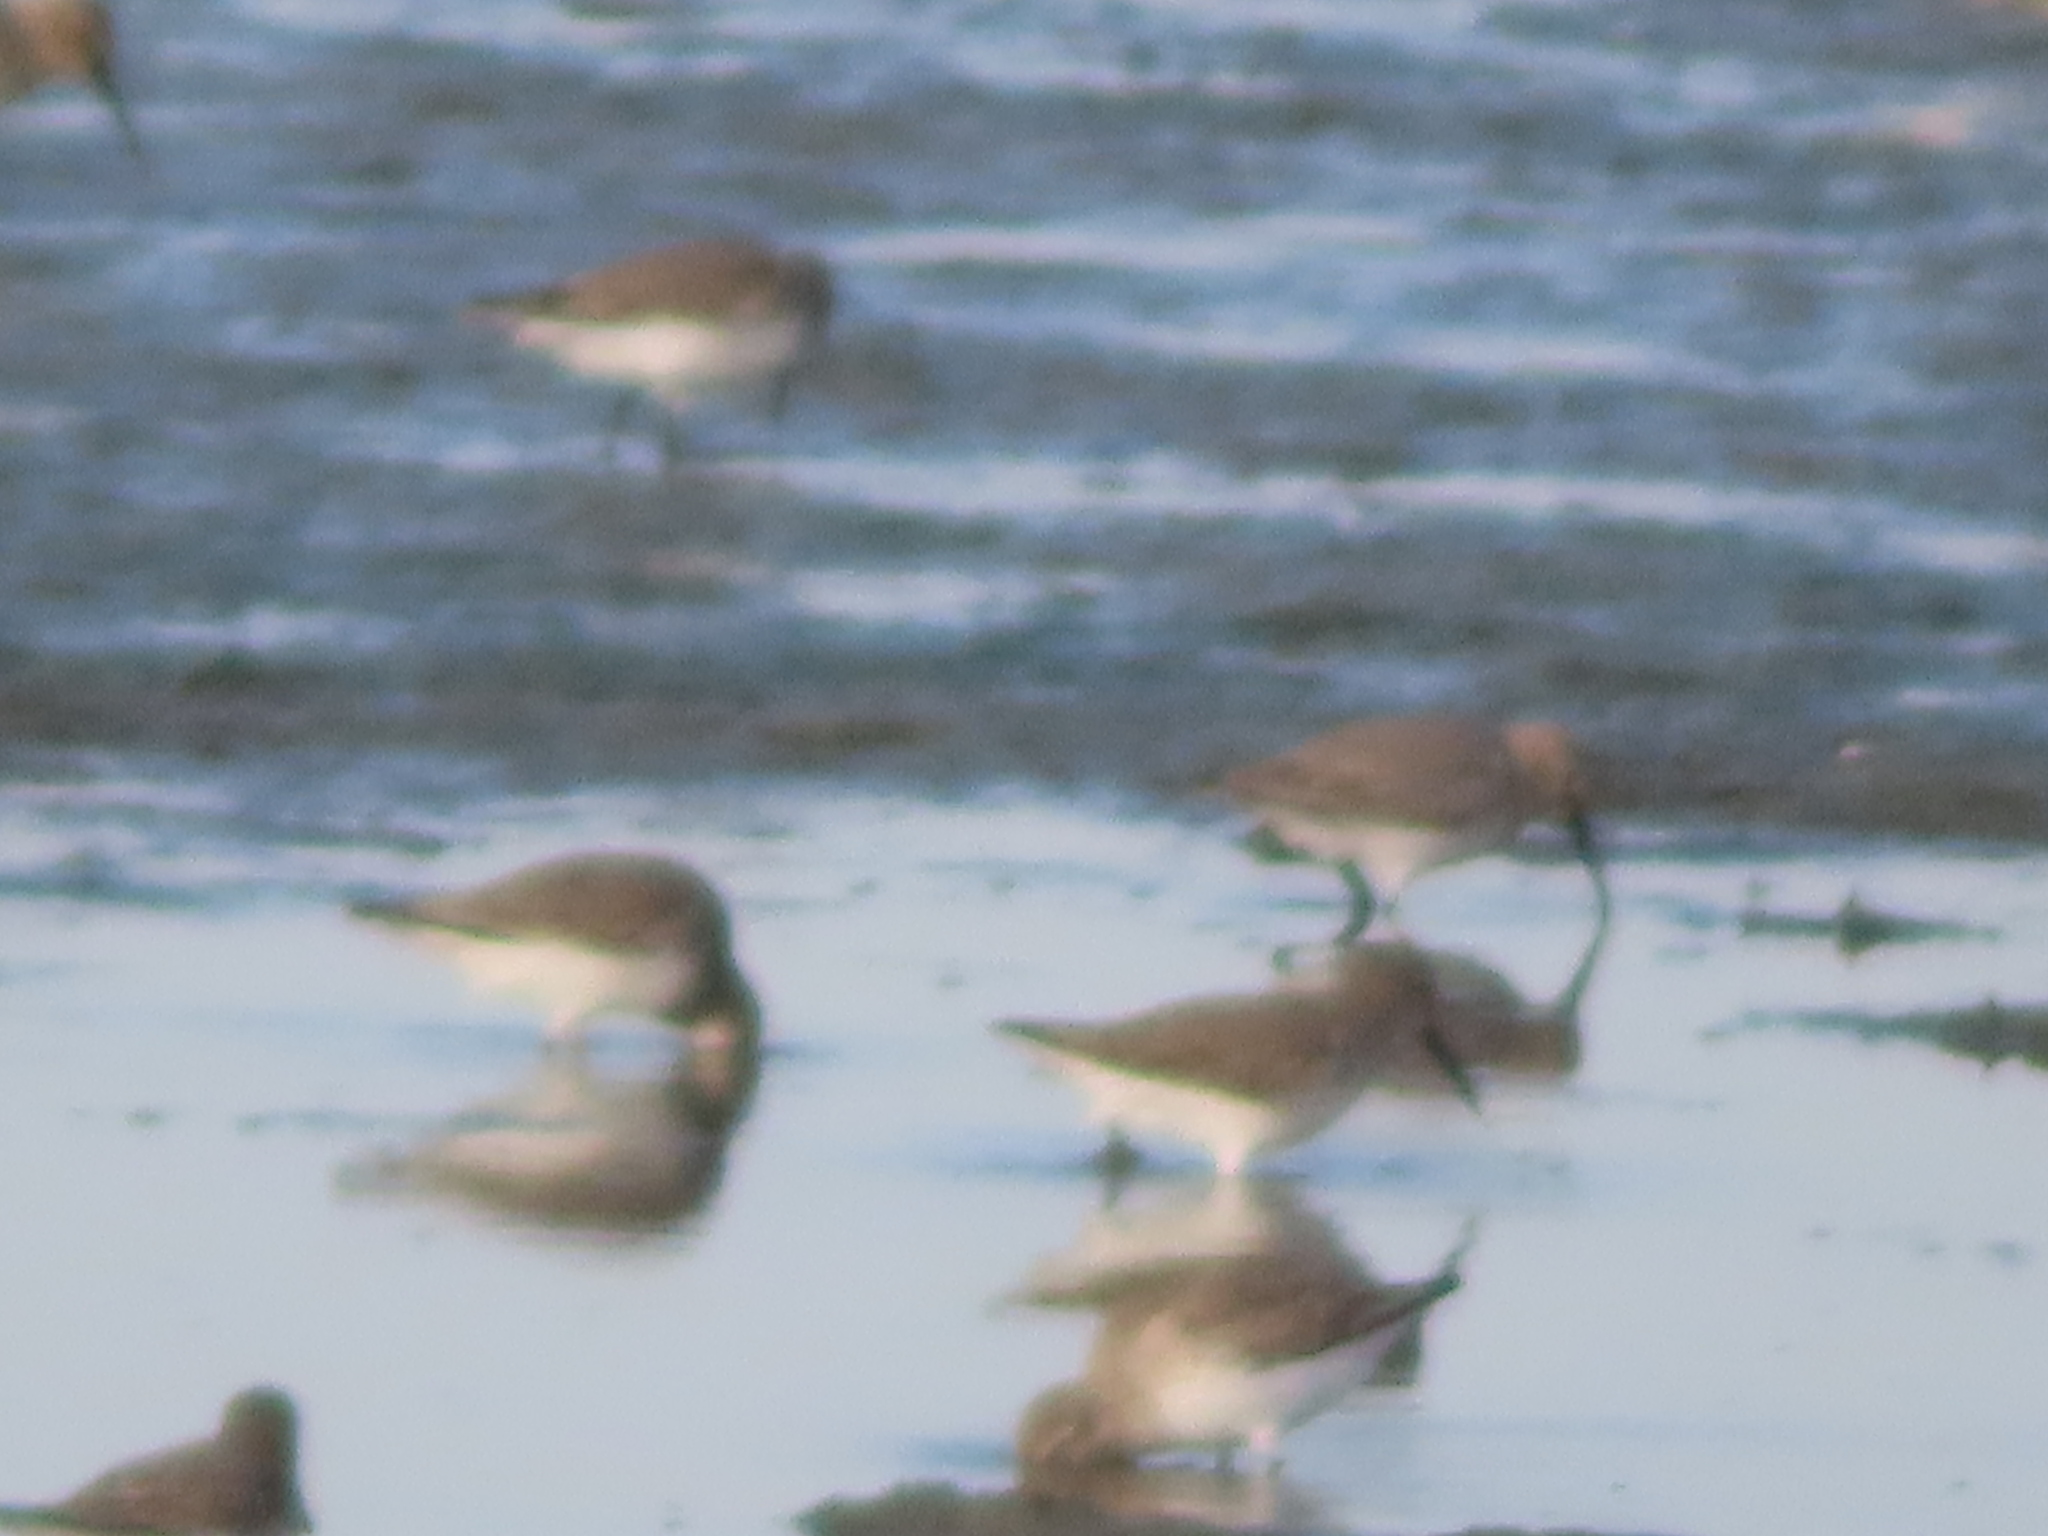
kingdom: Animalia
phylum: Chordata
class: Aves
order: Charadriiformes
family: Scolopacidae
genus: Calidris
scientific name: Calidris alpina
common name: Dunlin
